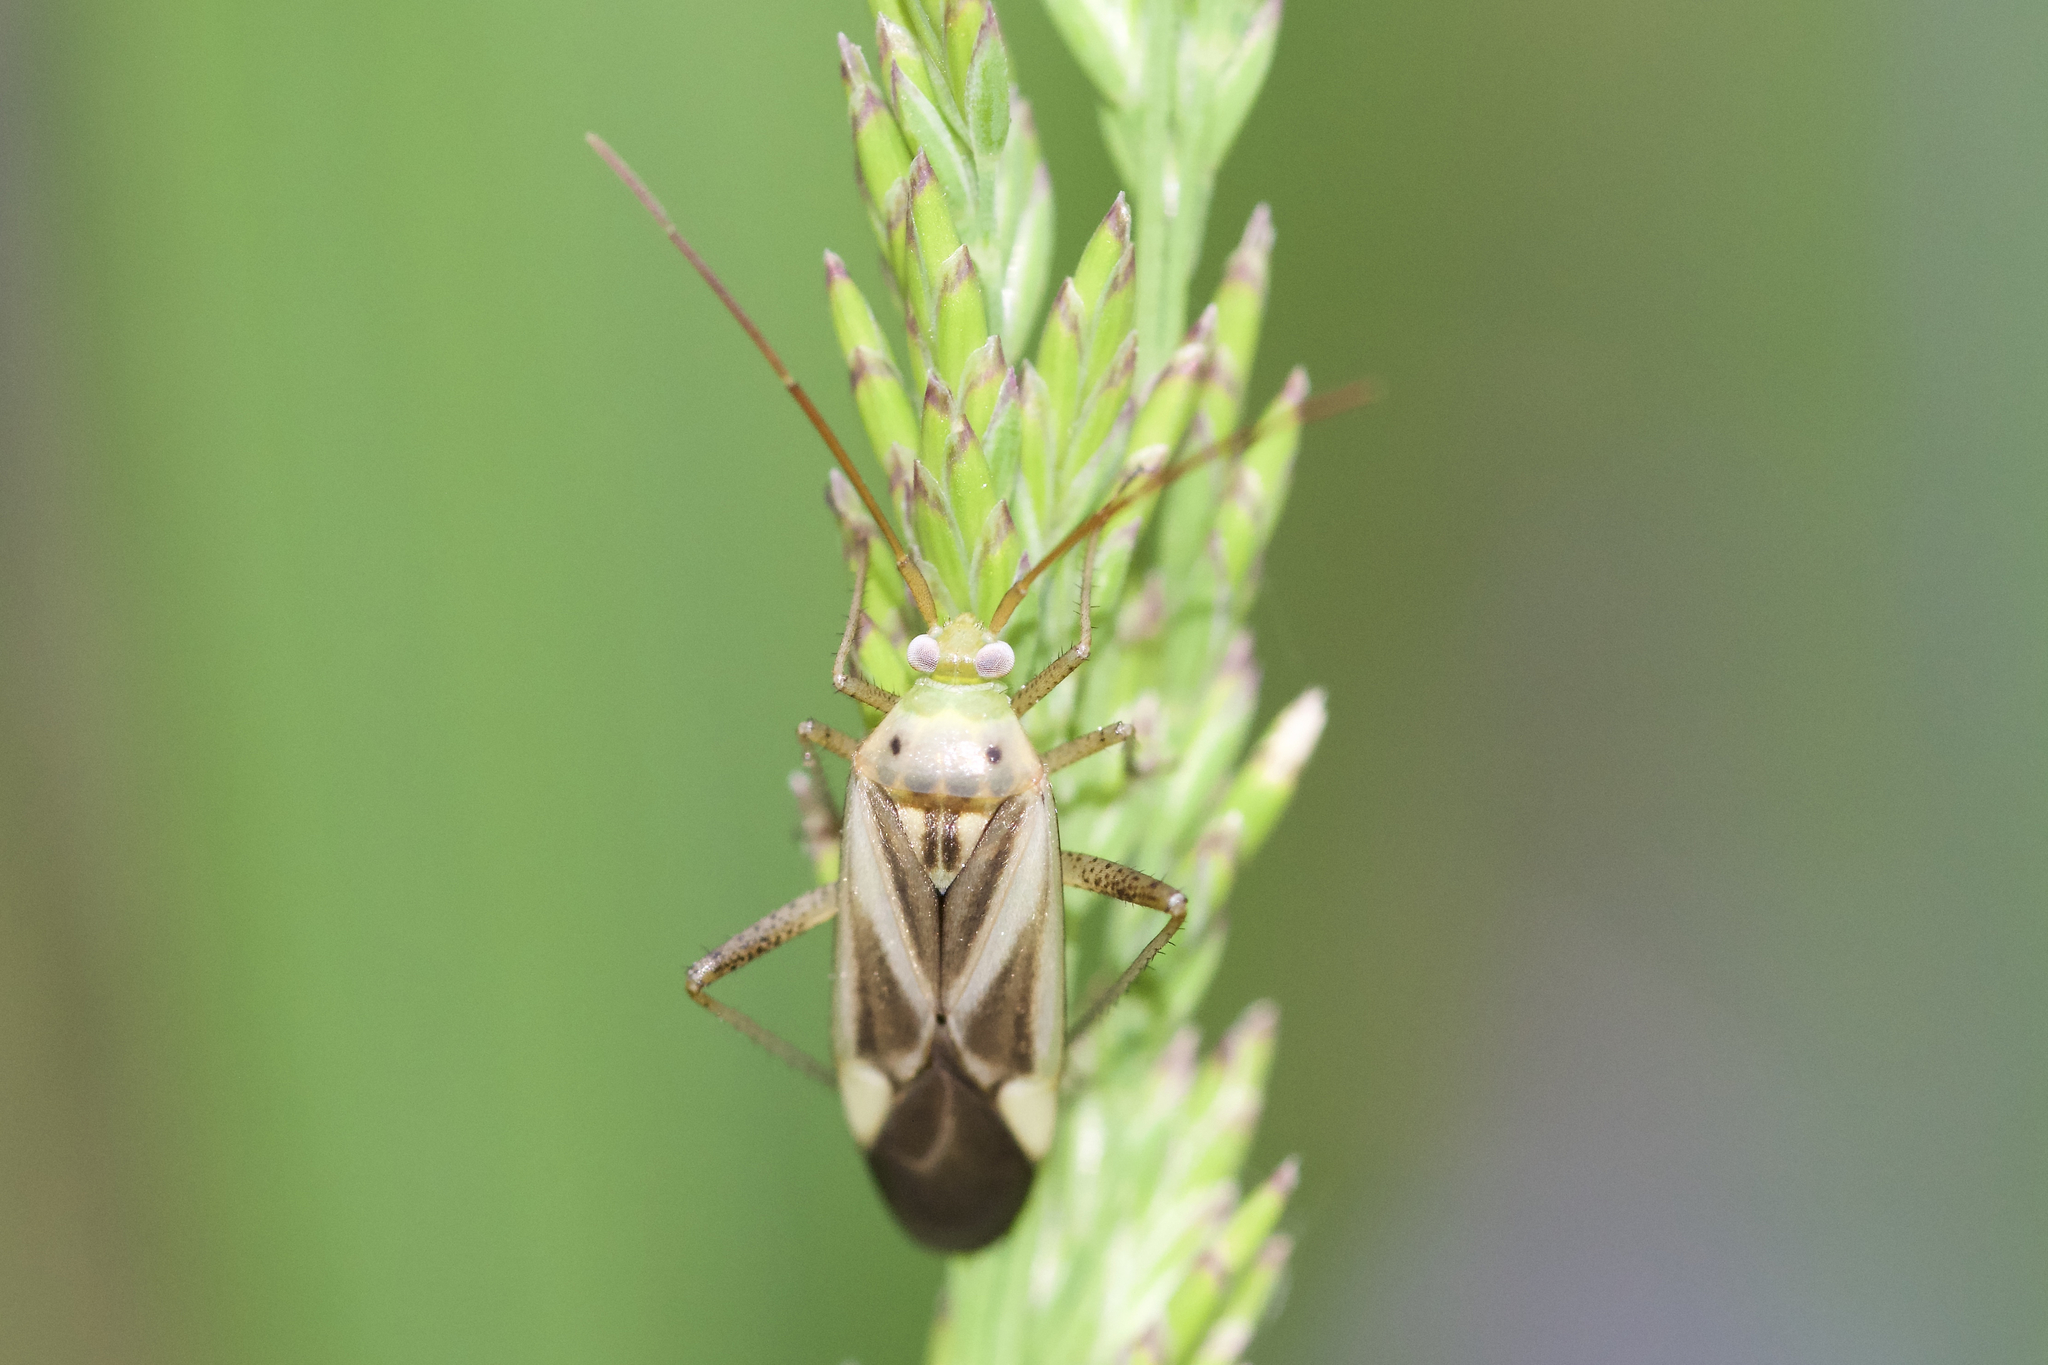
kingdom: Animalia
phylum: Arthropoda
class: Insecta
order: Hemiptera
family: Miridae
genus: Adelphocoris
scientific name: Adelphocoris lineolatus
